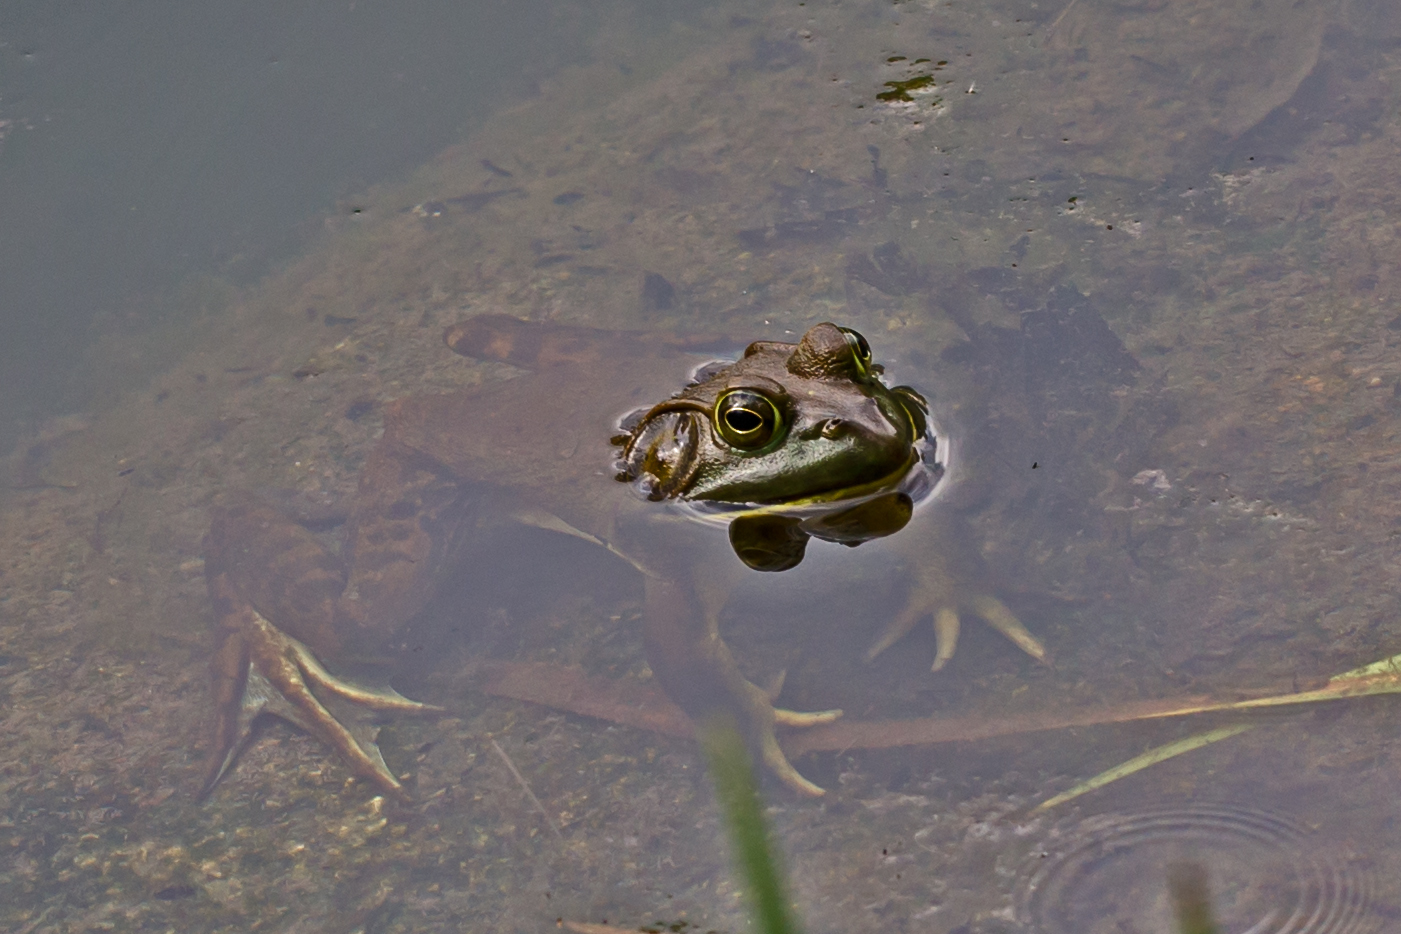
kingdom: Animalia
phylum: Chordata
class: Amphibia
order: Anura
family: Ranidae
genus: Lithobates
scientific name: Lithobates catesbeianus
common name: American bullfrog
